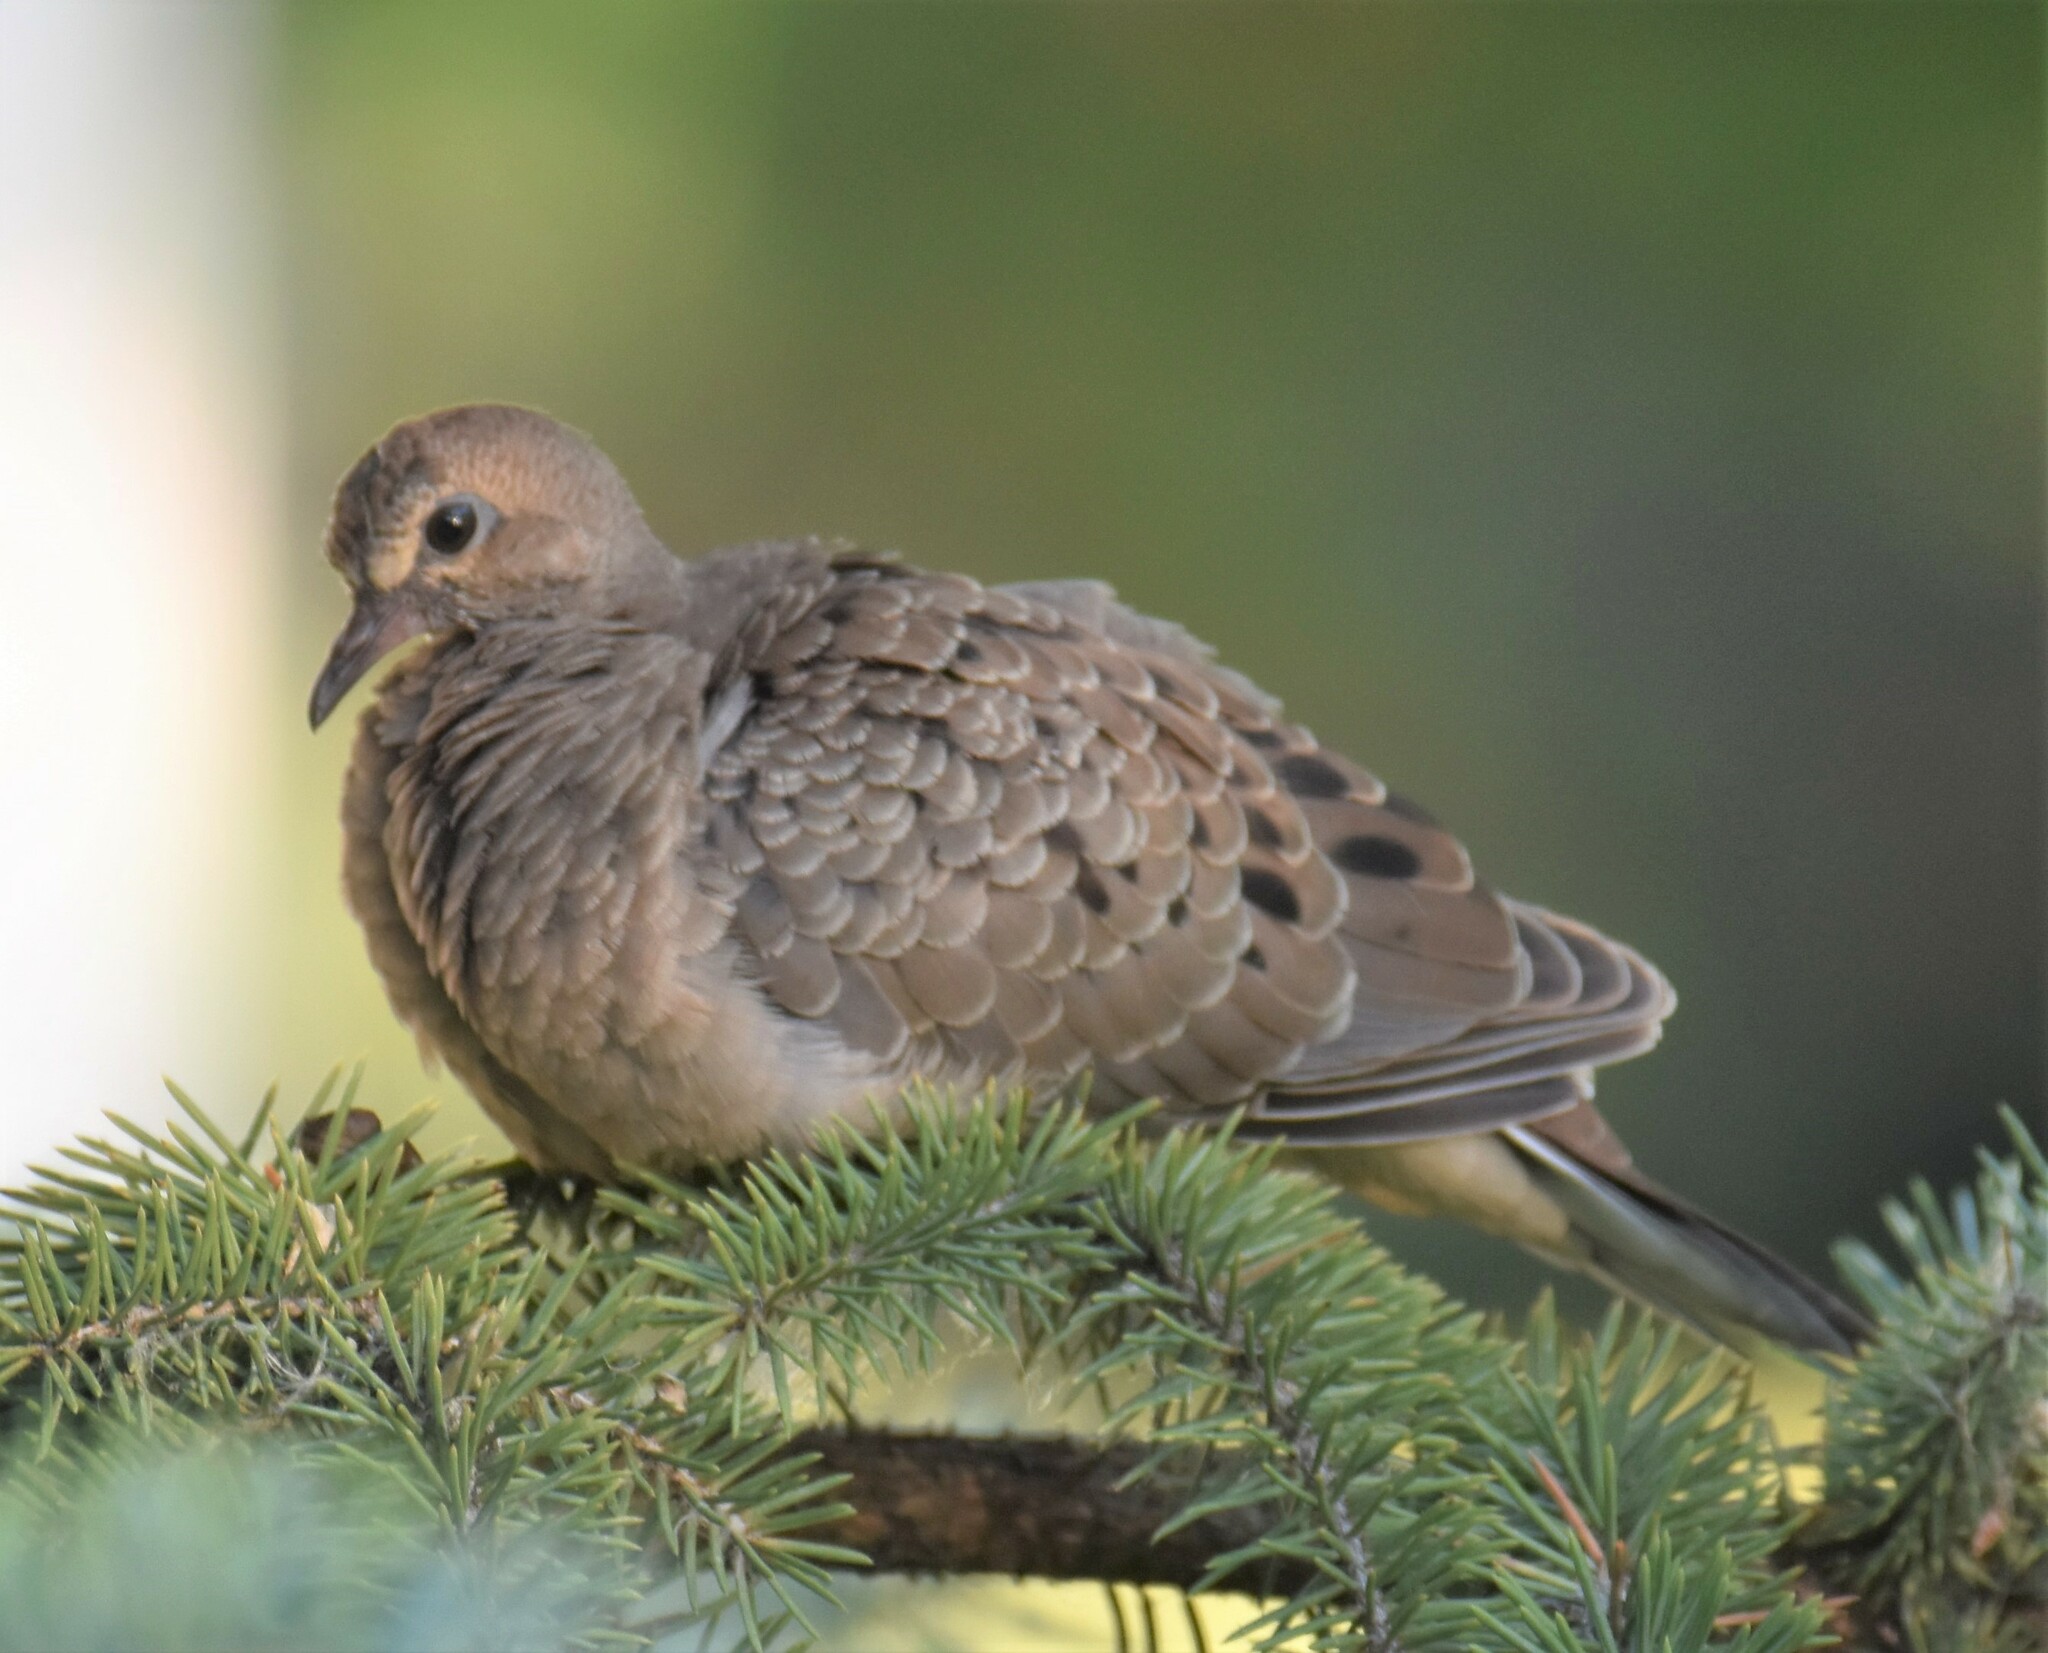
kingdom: Animalia
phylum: Chordata
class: Aves
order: Columbiformes
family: Columbidae
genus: Zenaida
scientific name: Zenaida macroura
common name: Mourning dove
